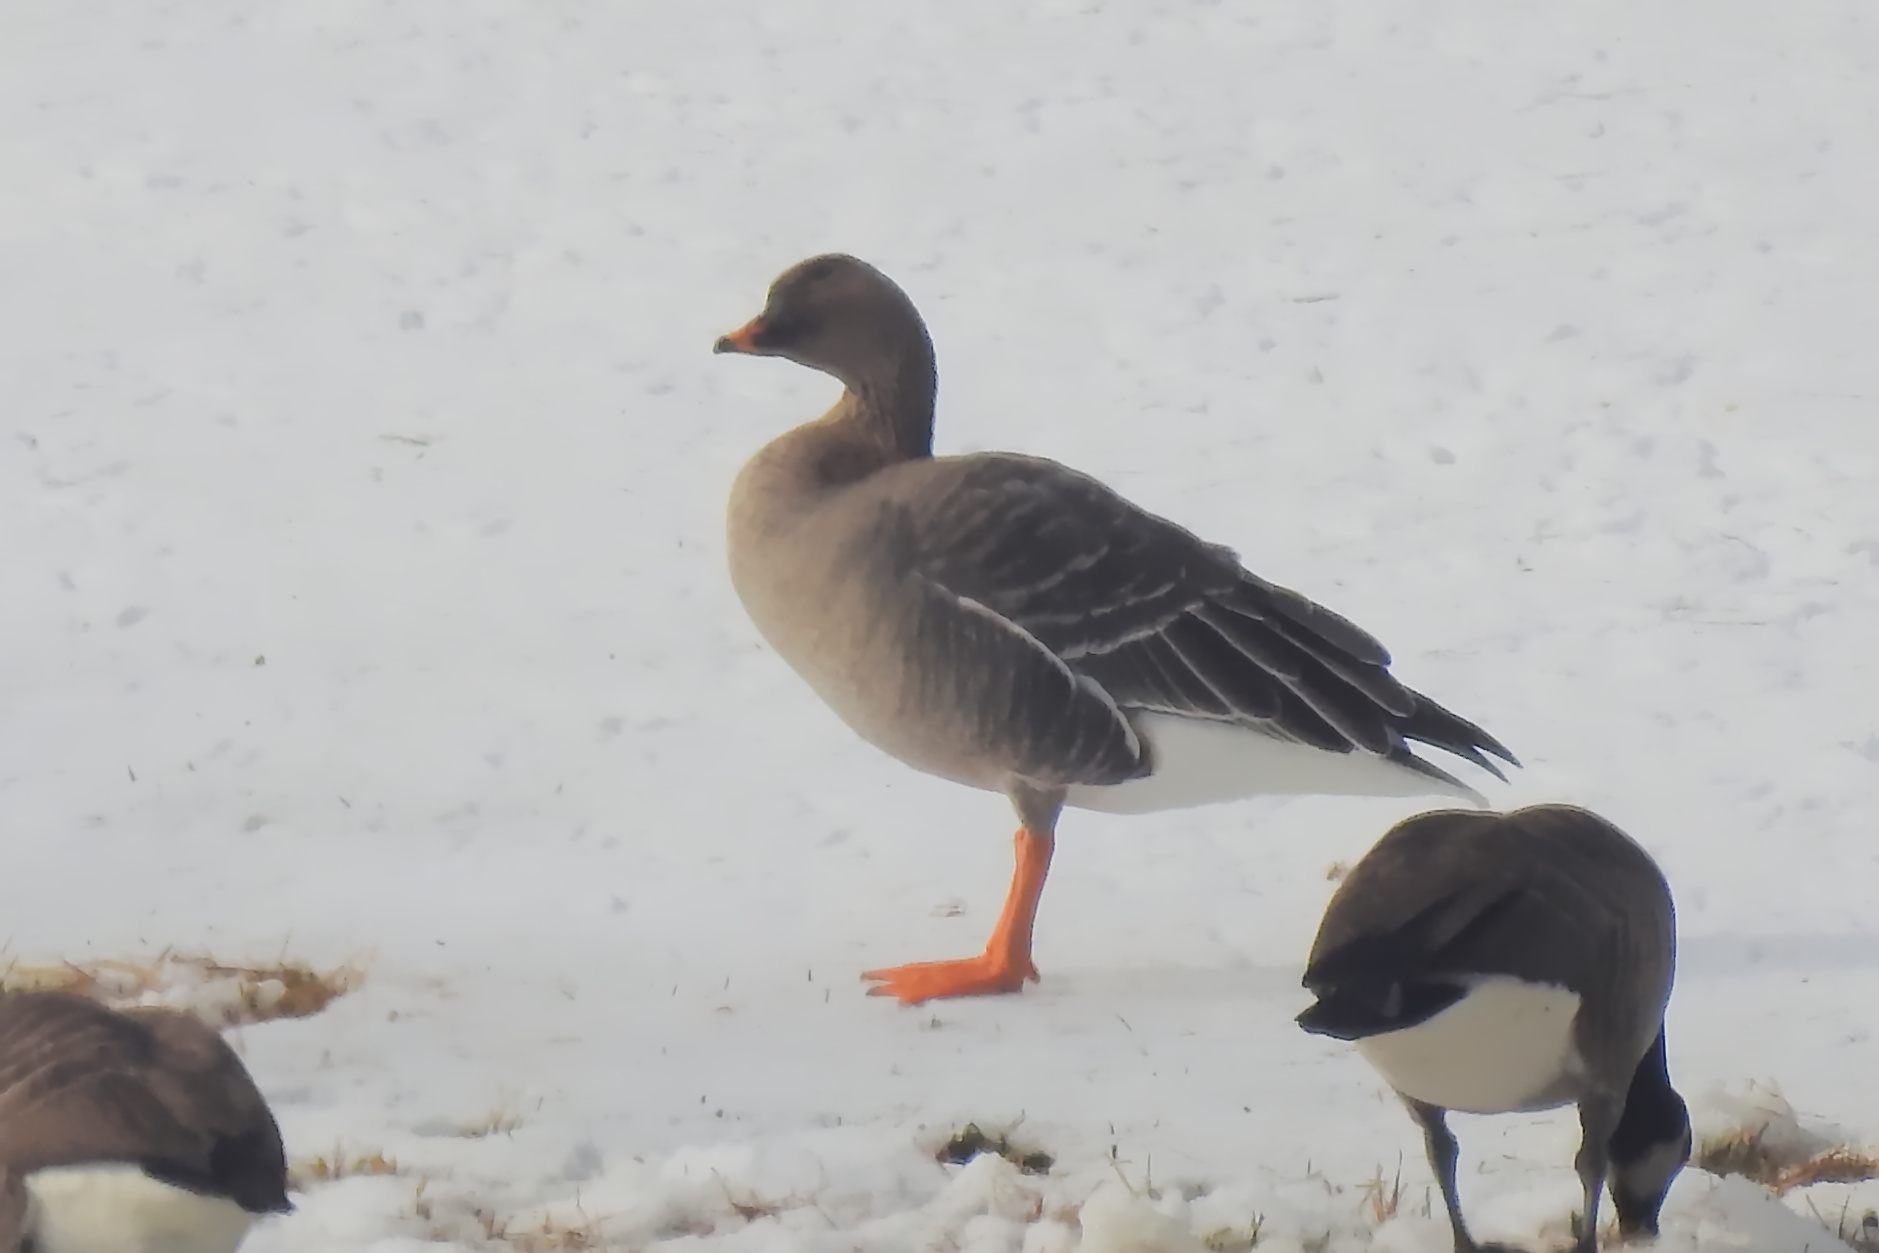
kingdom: Animalia
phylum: Chordata
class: Aves
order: Anseriformes
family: Anatidae
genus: Anser
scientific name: Anser serrirostris
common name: Tundra bean goose
